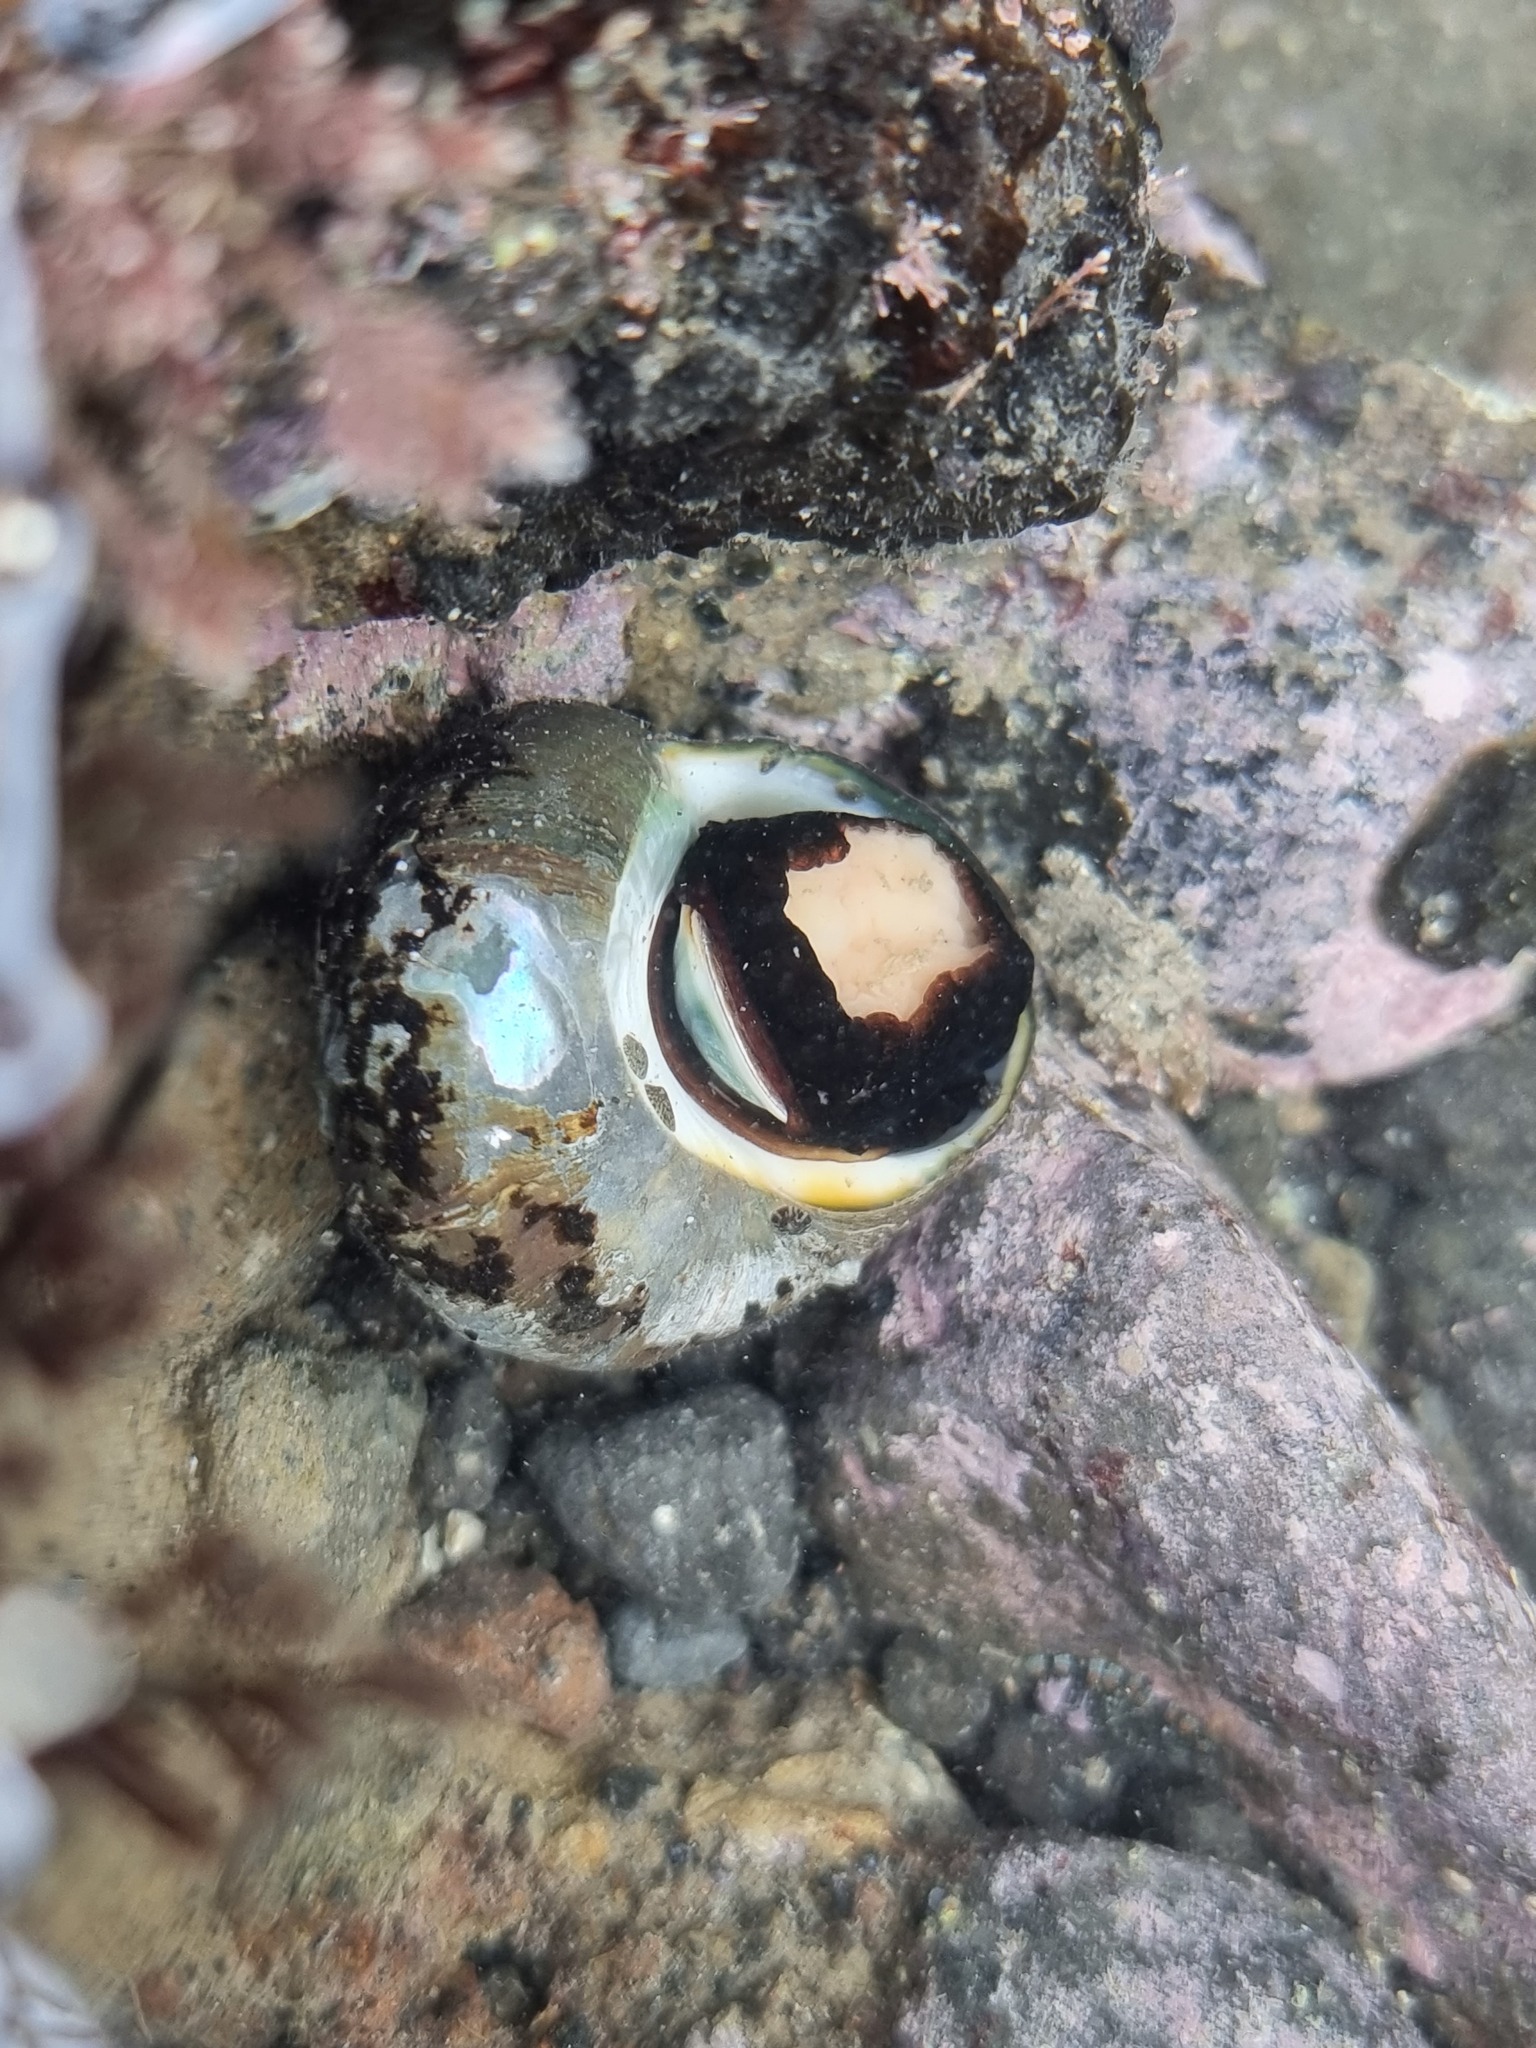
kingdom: Animalia
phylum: Mollusca
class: Gastropoda
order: Trochida
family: Turbinidae
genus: Lunella
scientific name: Lunella smaragda
